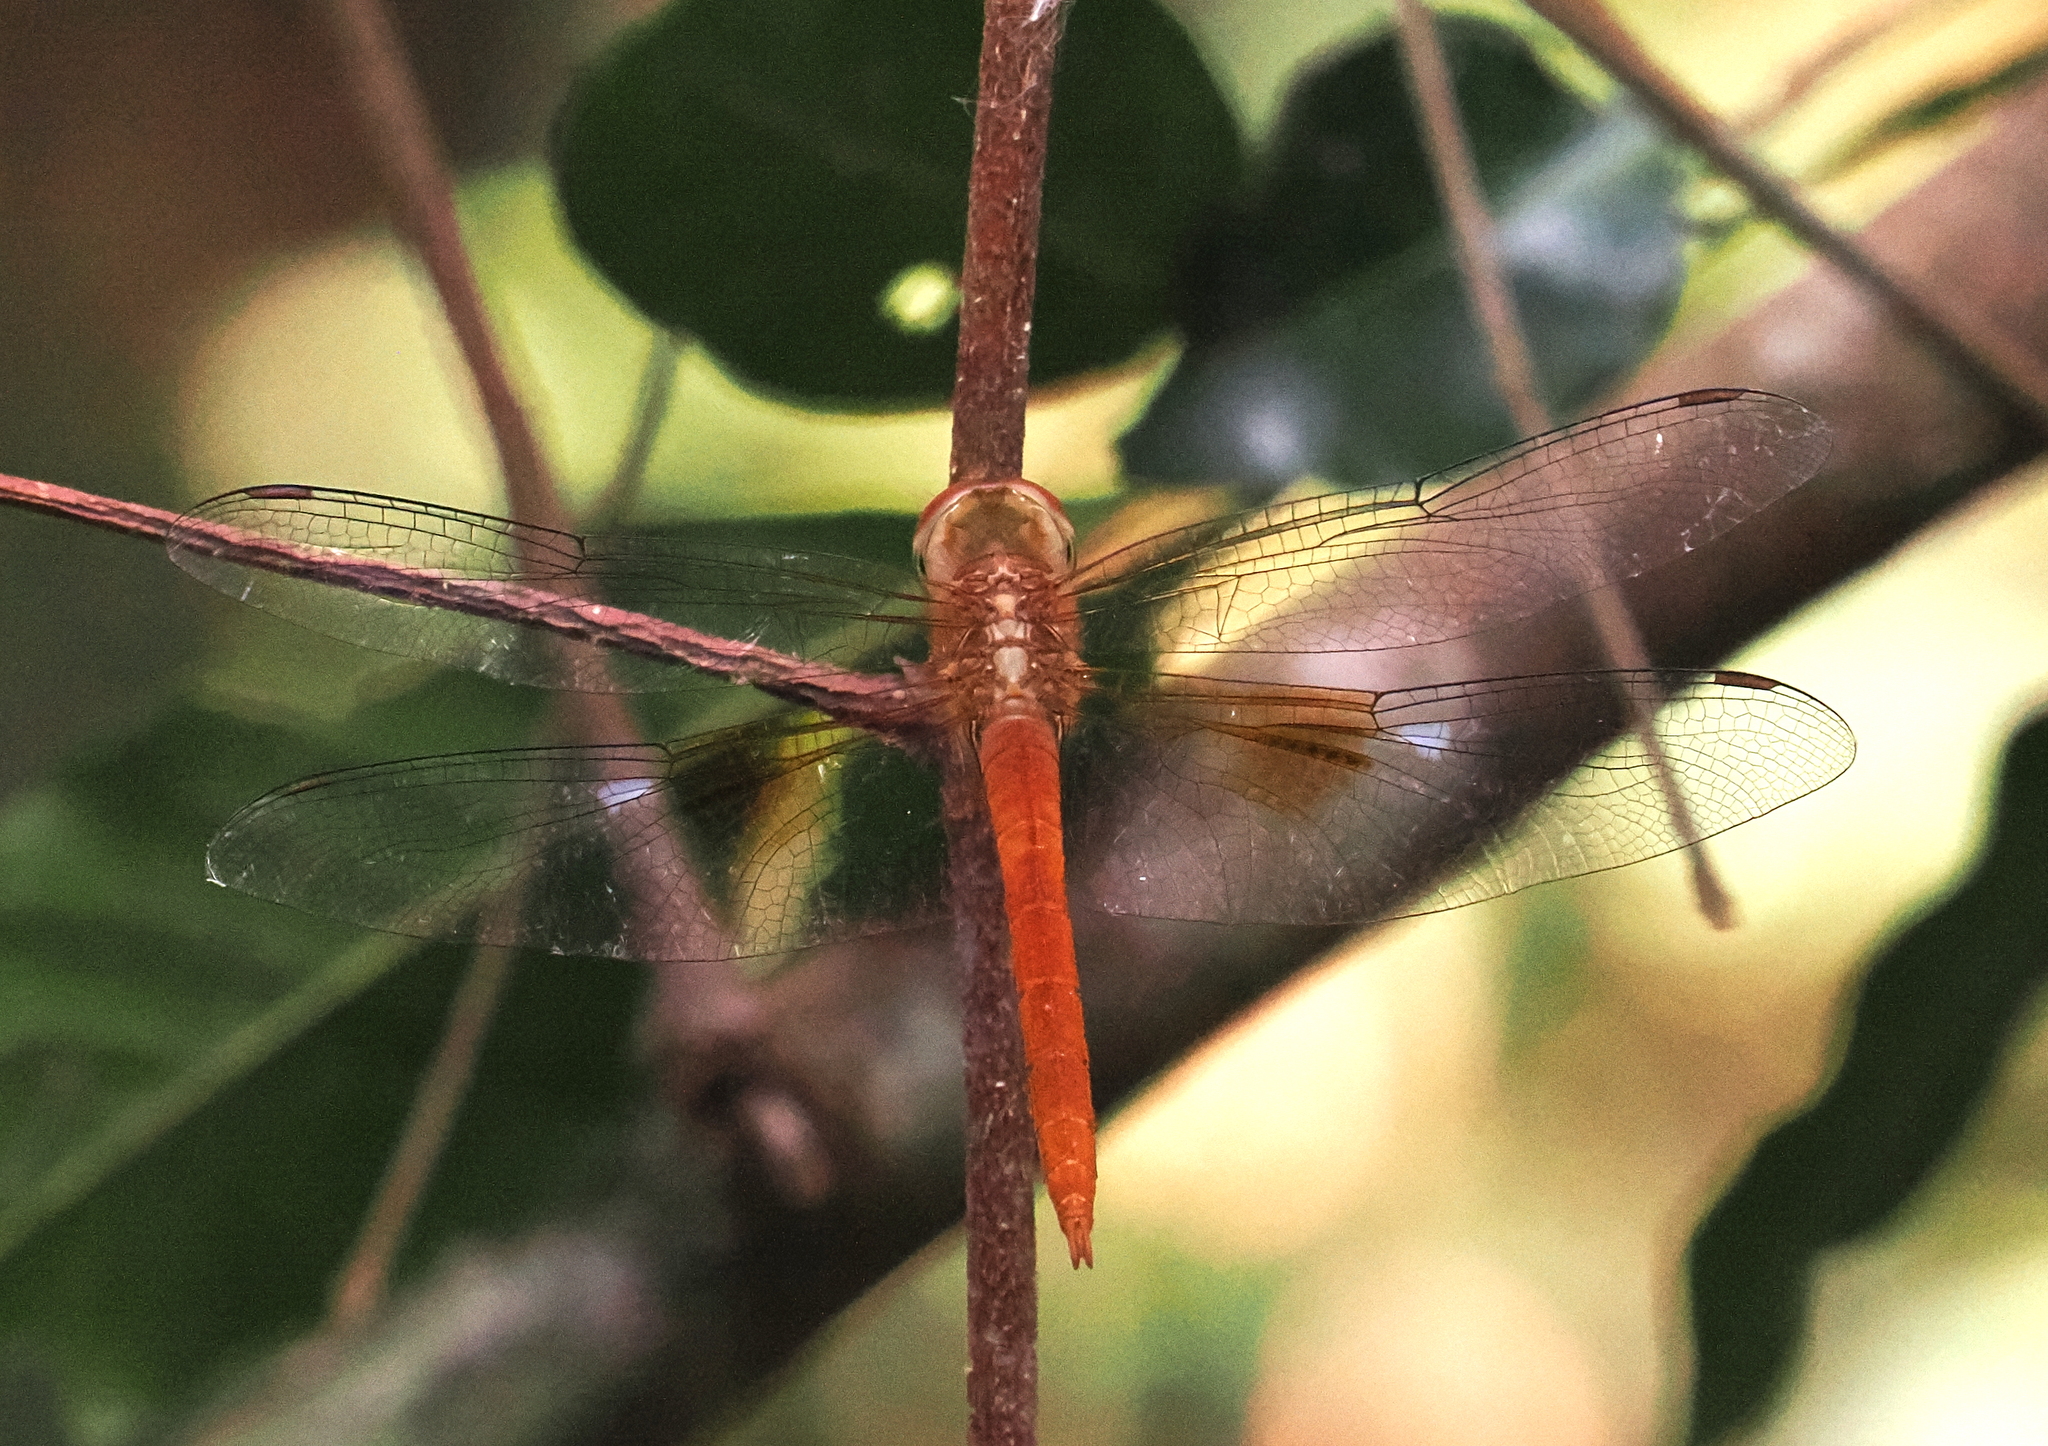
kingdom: Animalia
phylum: Arthropoda
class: Insecta
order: Odonata
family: Libellulidae
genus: Tholymis
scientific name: Tholymis tillarga
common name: Coral-tailed cloud wing
